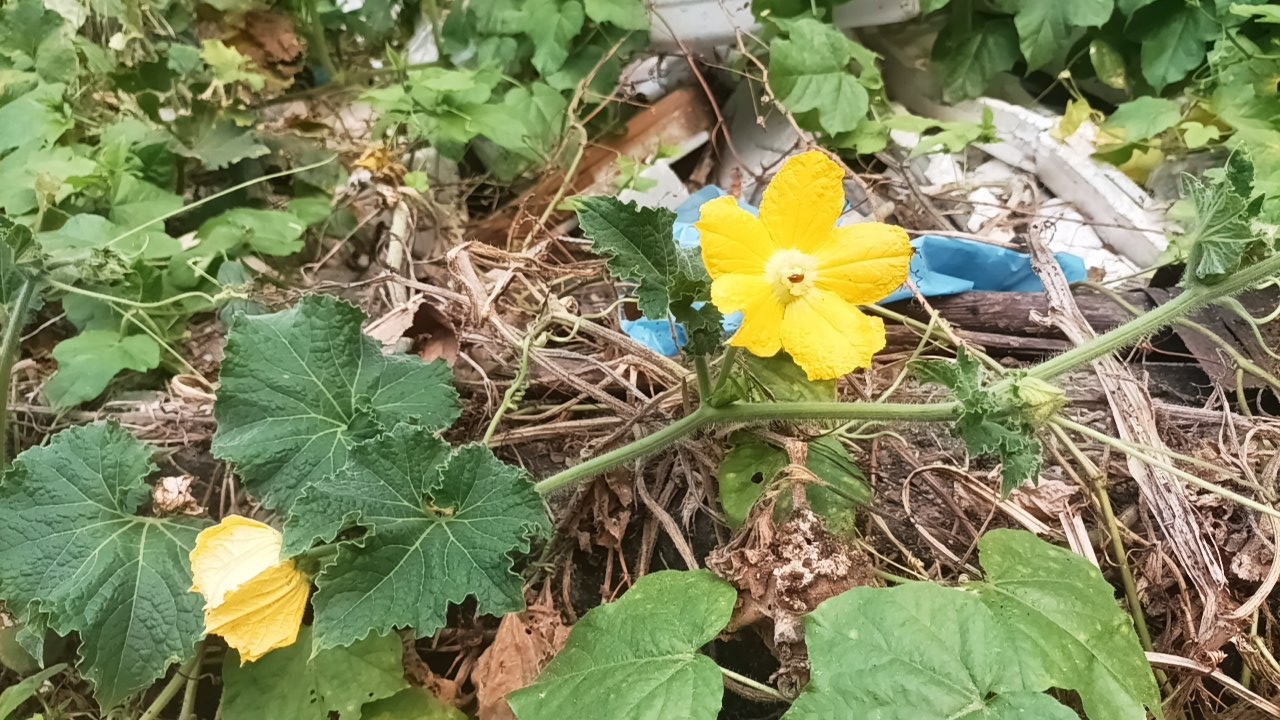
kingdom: Plantae
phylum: Tracheophyta
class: Magnoliopsida
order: Cucurbitales
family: Cucurbitaceae
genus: Benincasa
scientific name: Benincasa hispida
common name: Chinese-watermelon
